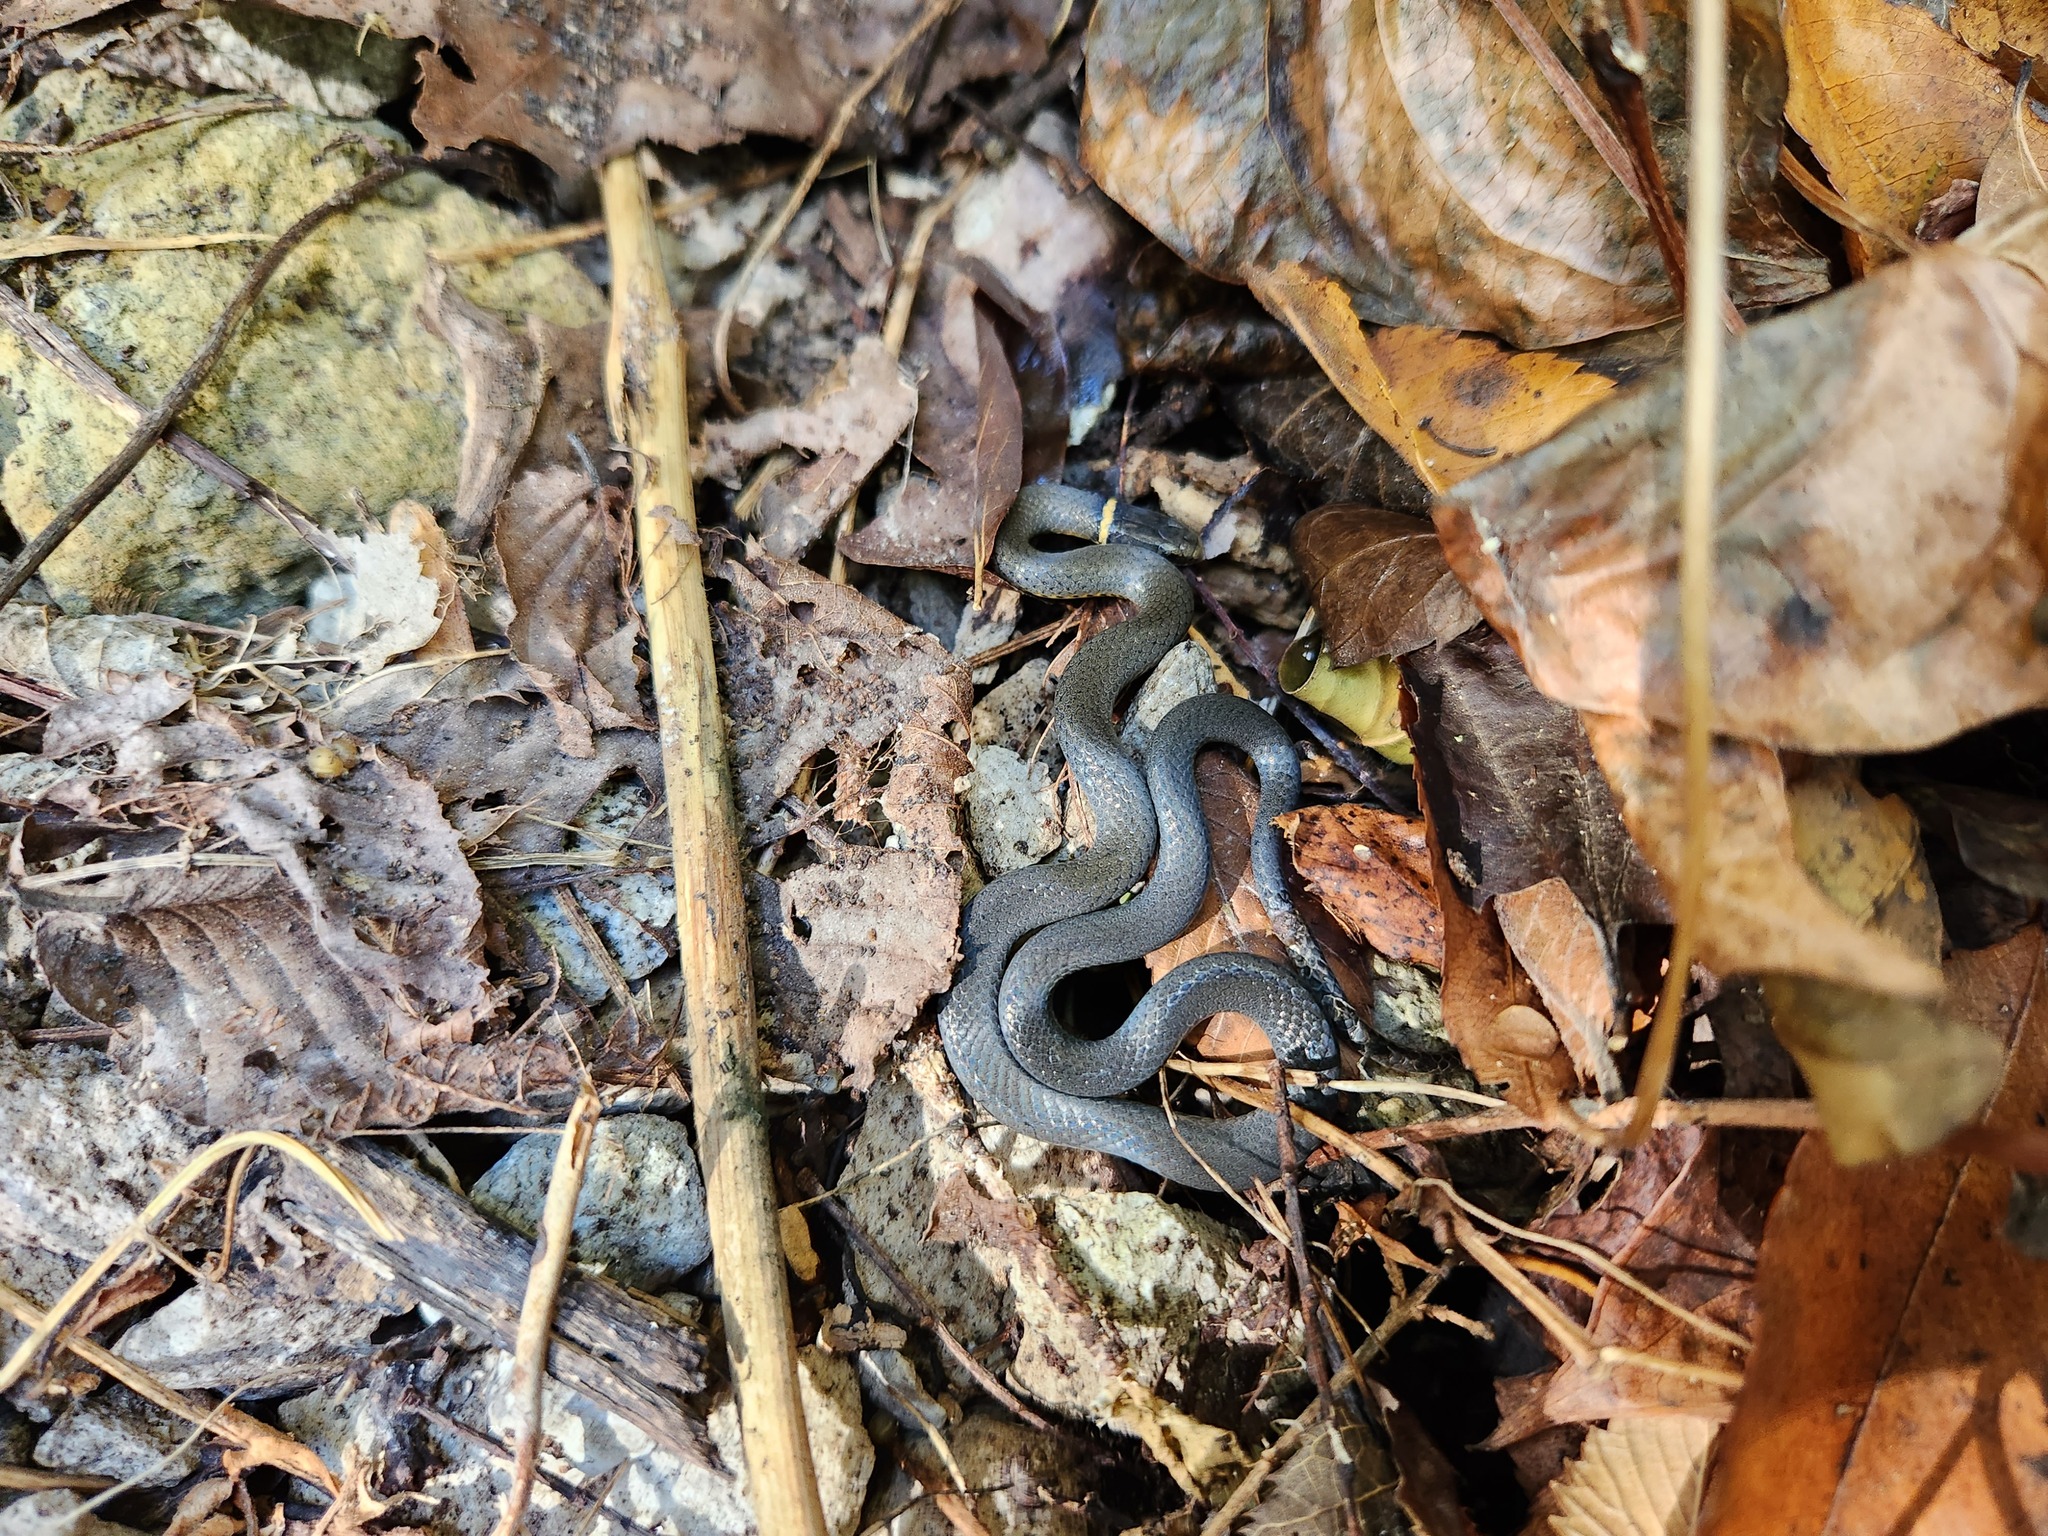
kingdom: Animalia
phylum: Chordata
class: Squamata
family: Colubridae
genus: Diadophis
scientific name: Diadophis punctatus
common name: Ringneck snake
